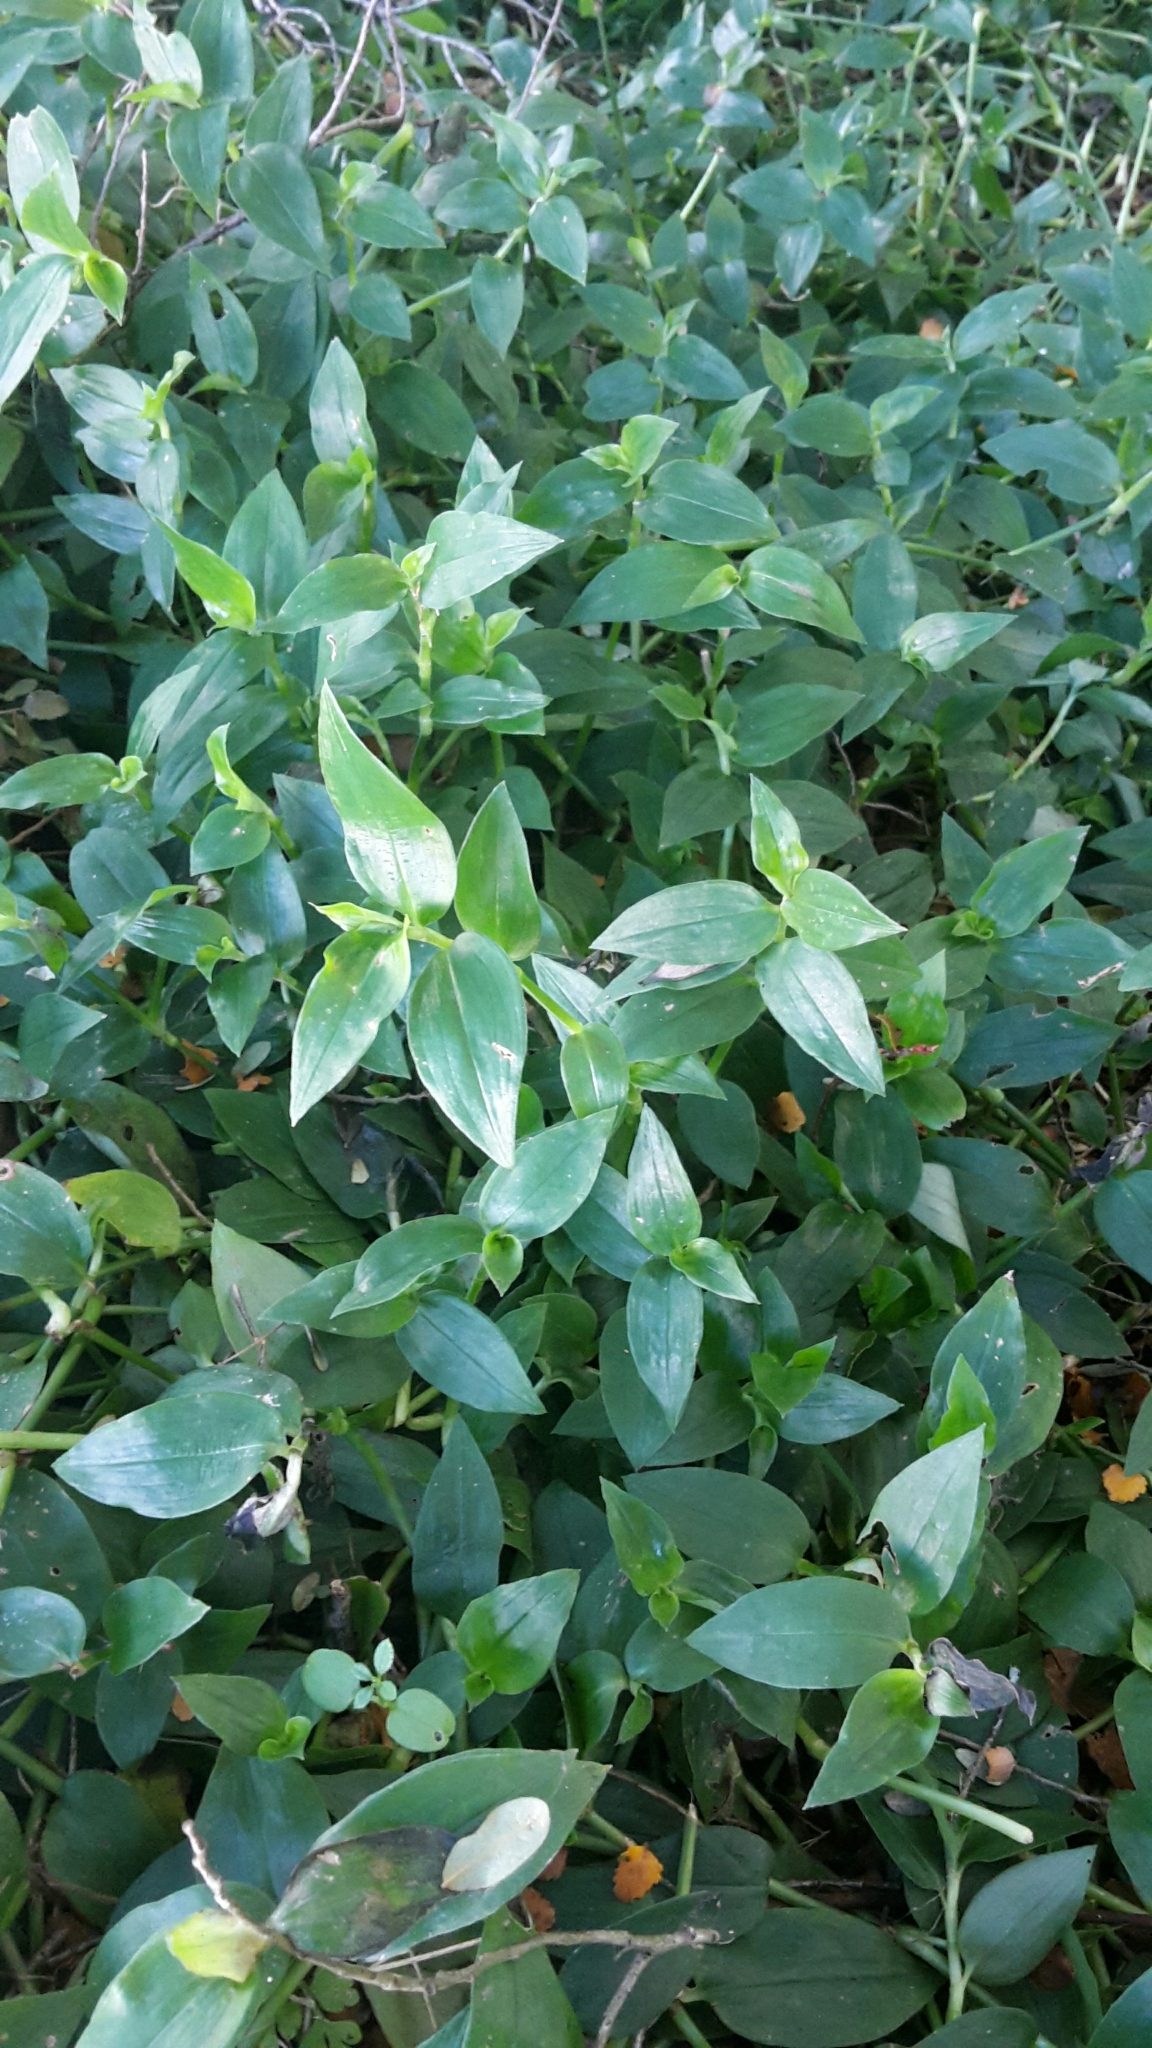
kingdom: Plantae
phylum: Tracheophyta
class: Liliopsida
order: Commelinales
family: Commelinaceae
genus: Tradescantia
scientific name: Tradescantia fluminensis
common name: Wandering-jew
